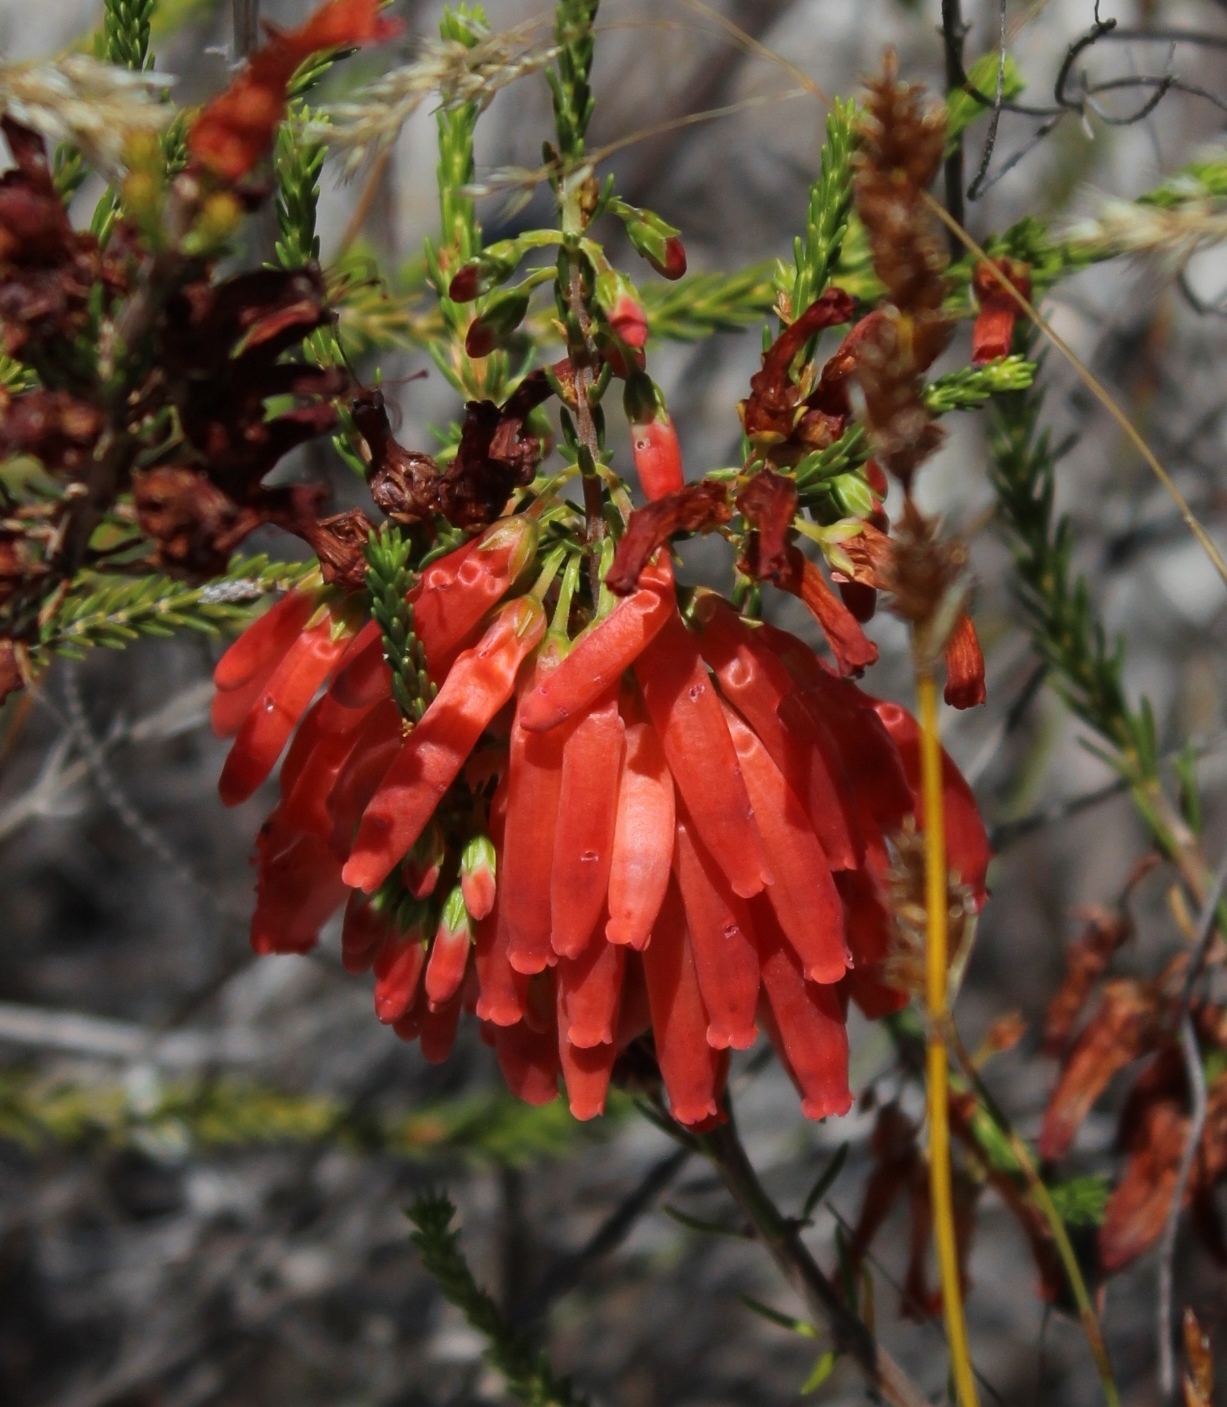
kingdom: Plantae
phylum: Tracheophyta
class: Magnoliopsida
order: Ericales
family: Ericaceae
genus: Erica
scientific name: Erica mammosa
